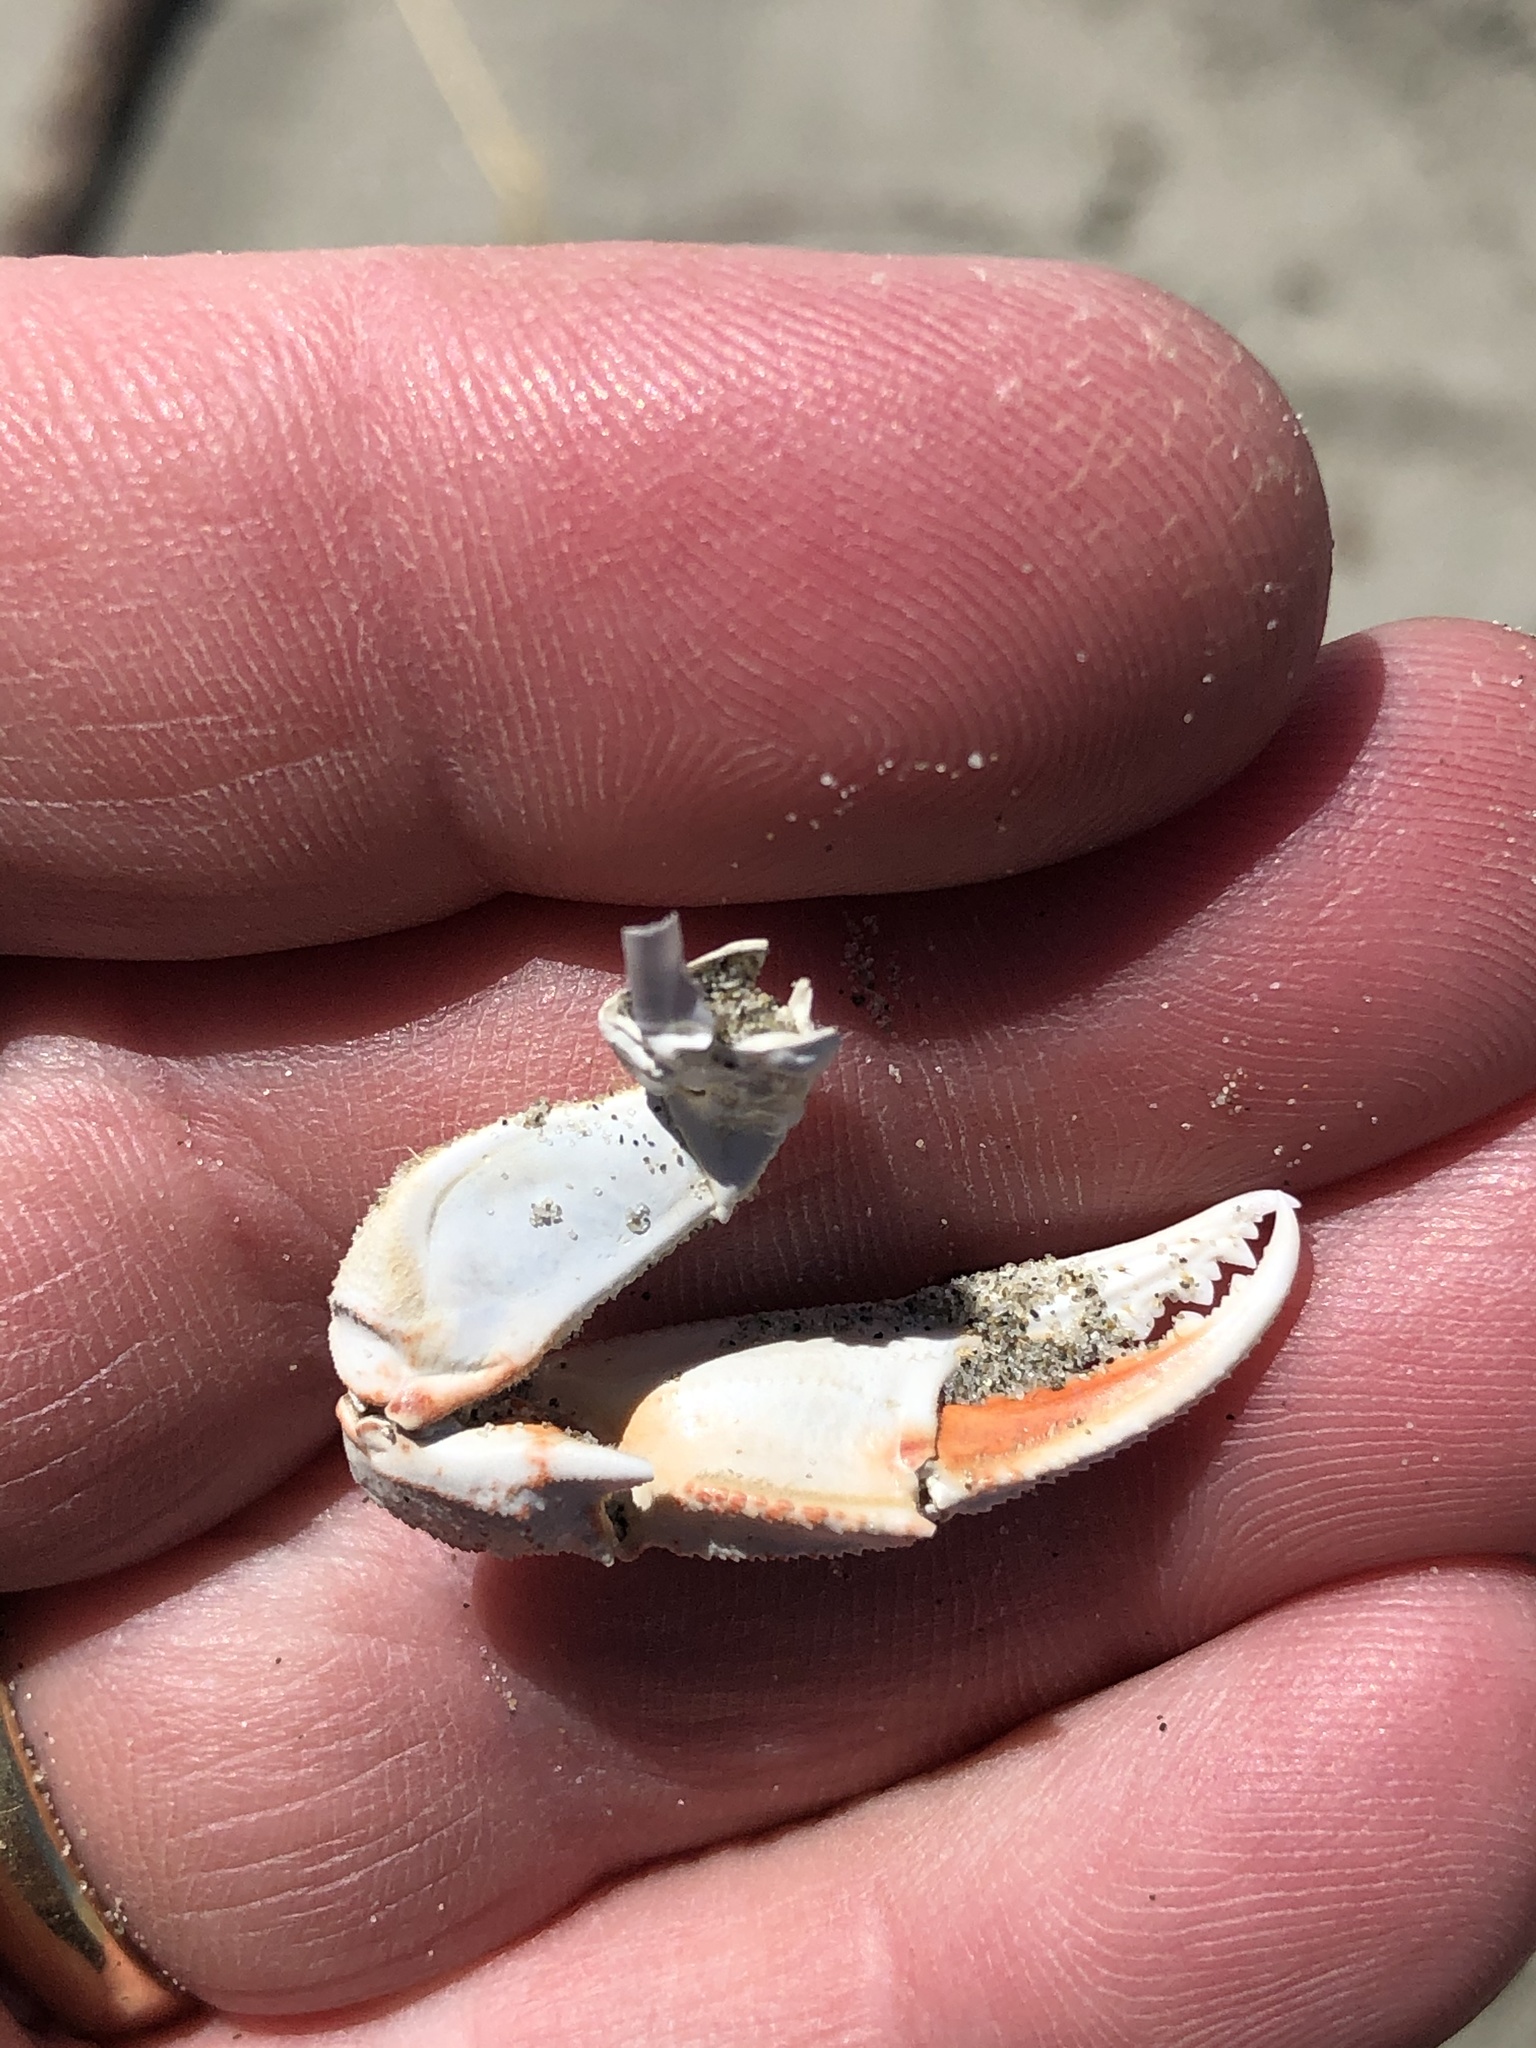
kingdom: Animalia
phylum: Arthropoda
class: Malacostraca
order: Decapoda
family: Ovalipidae
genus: Ovalipes
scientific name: Ovalipes catharus
